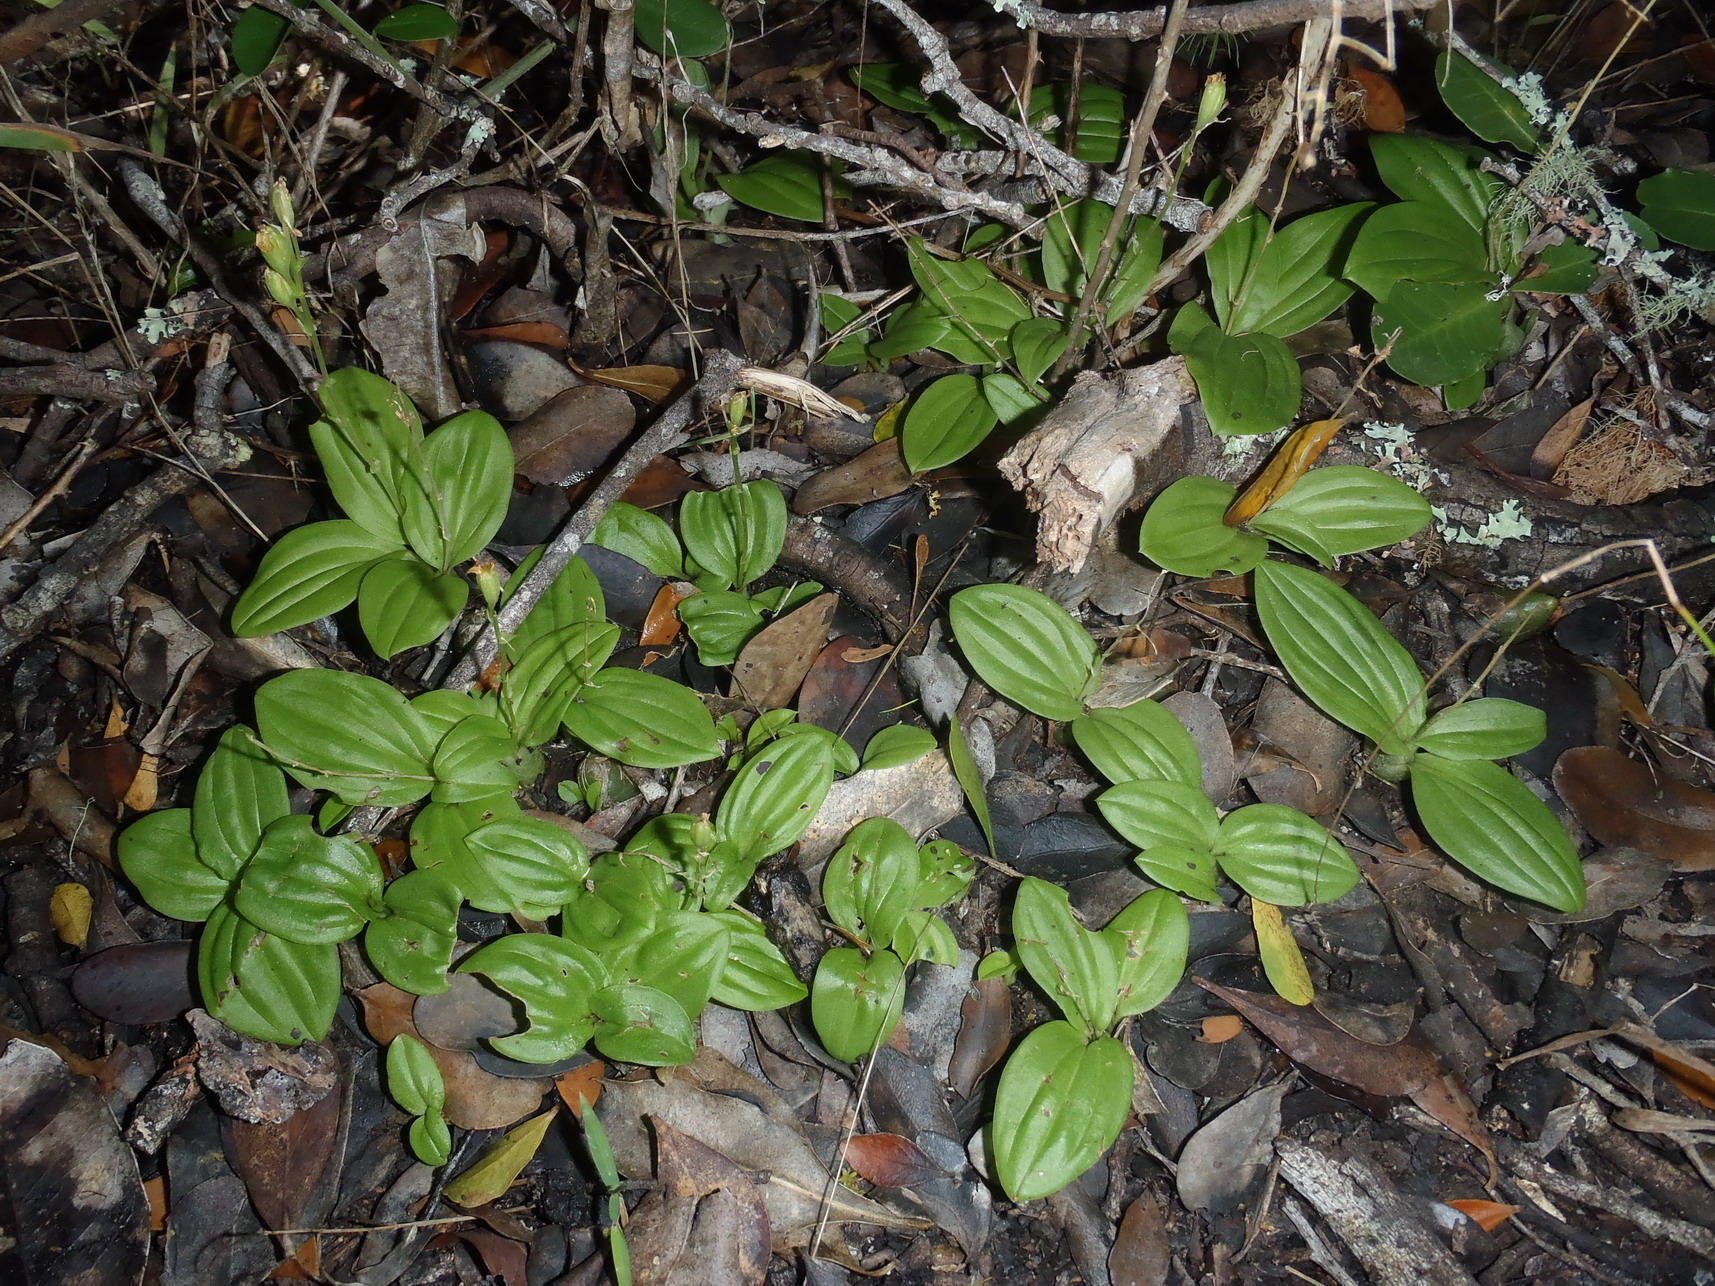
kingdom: Plantae
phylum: Tracheophyta
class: Liliopsida
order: Asparagales
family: Orchidaceae
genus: Liparis
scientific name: Liparis remota
